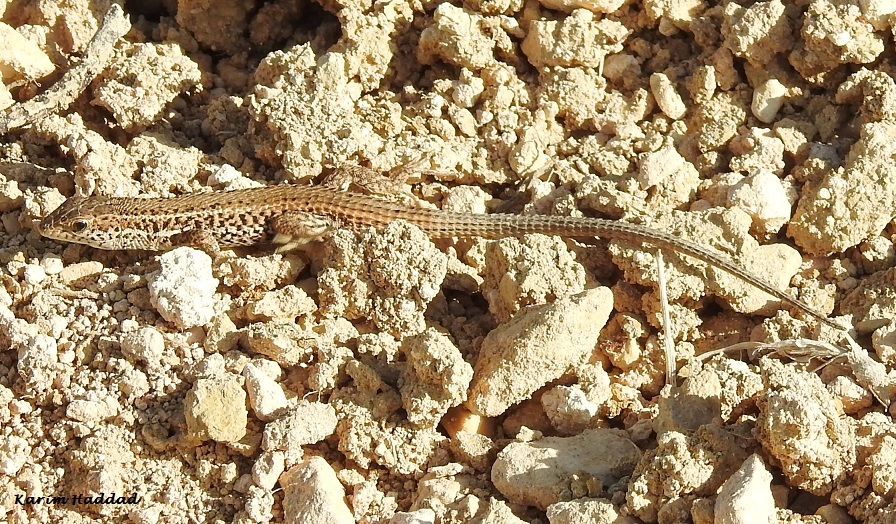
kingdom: Animalia
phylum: Chordata
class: Squamata
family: Lacertidae
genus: Ophisops
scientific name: Ophisops occidentalis
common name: Western snake-eyed lizard
